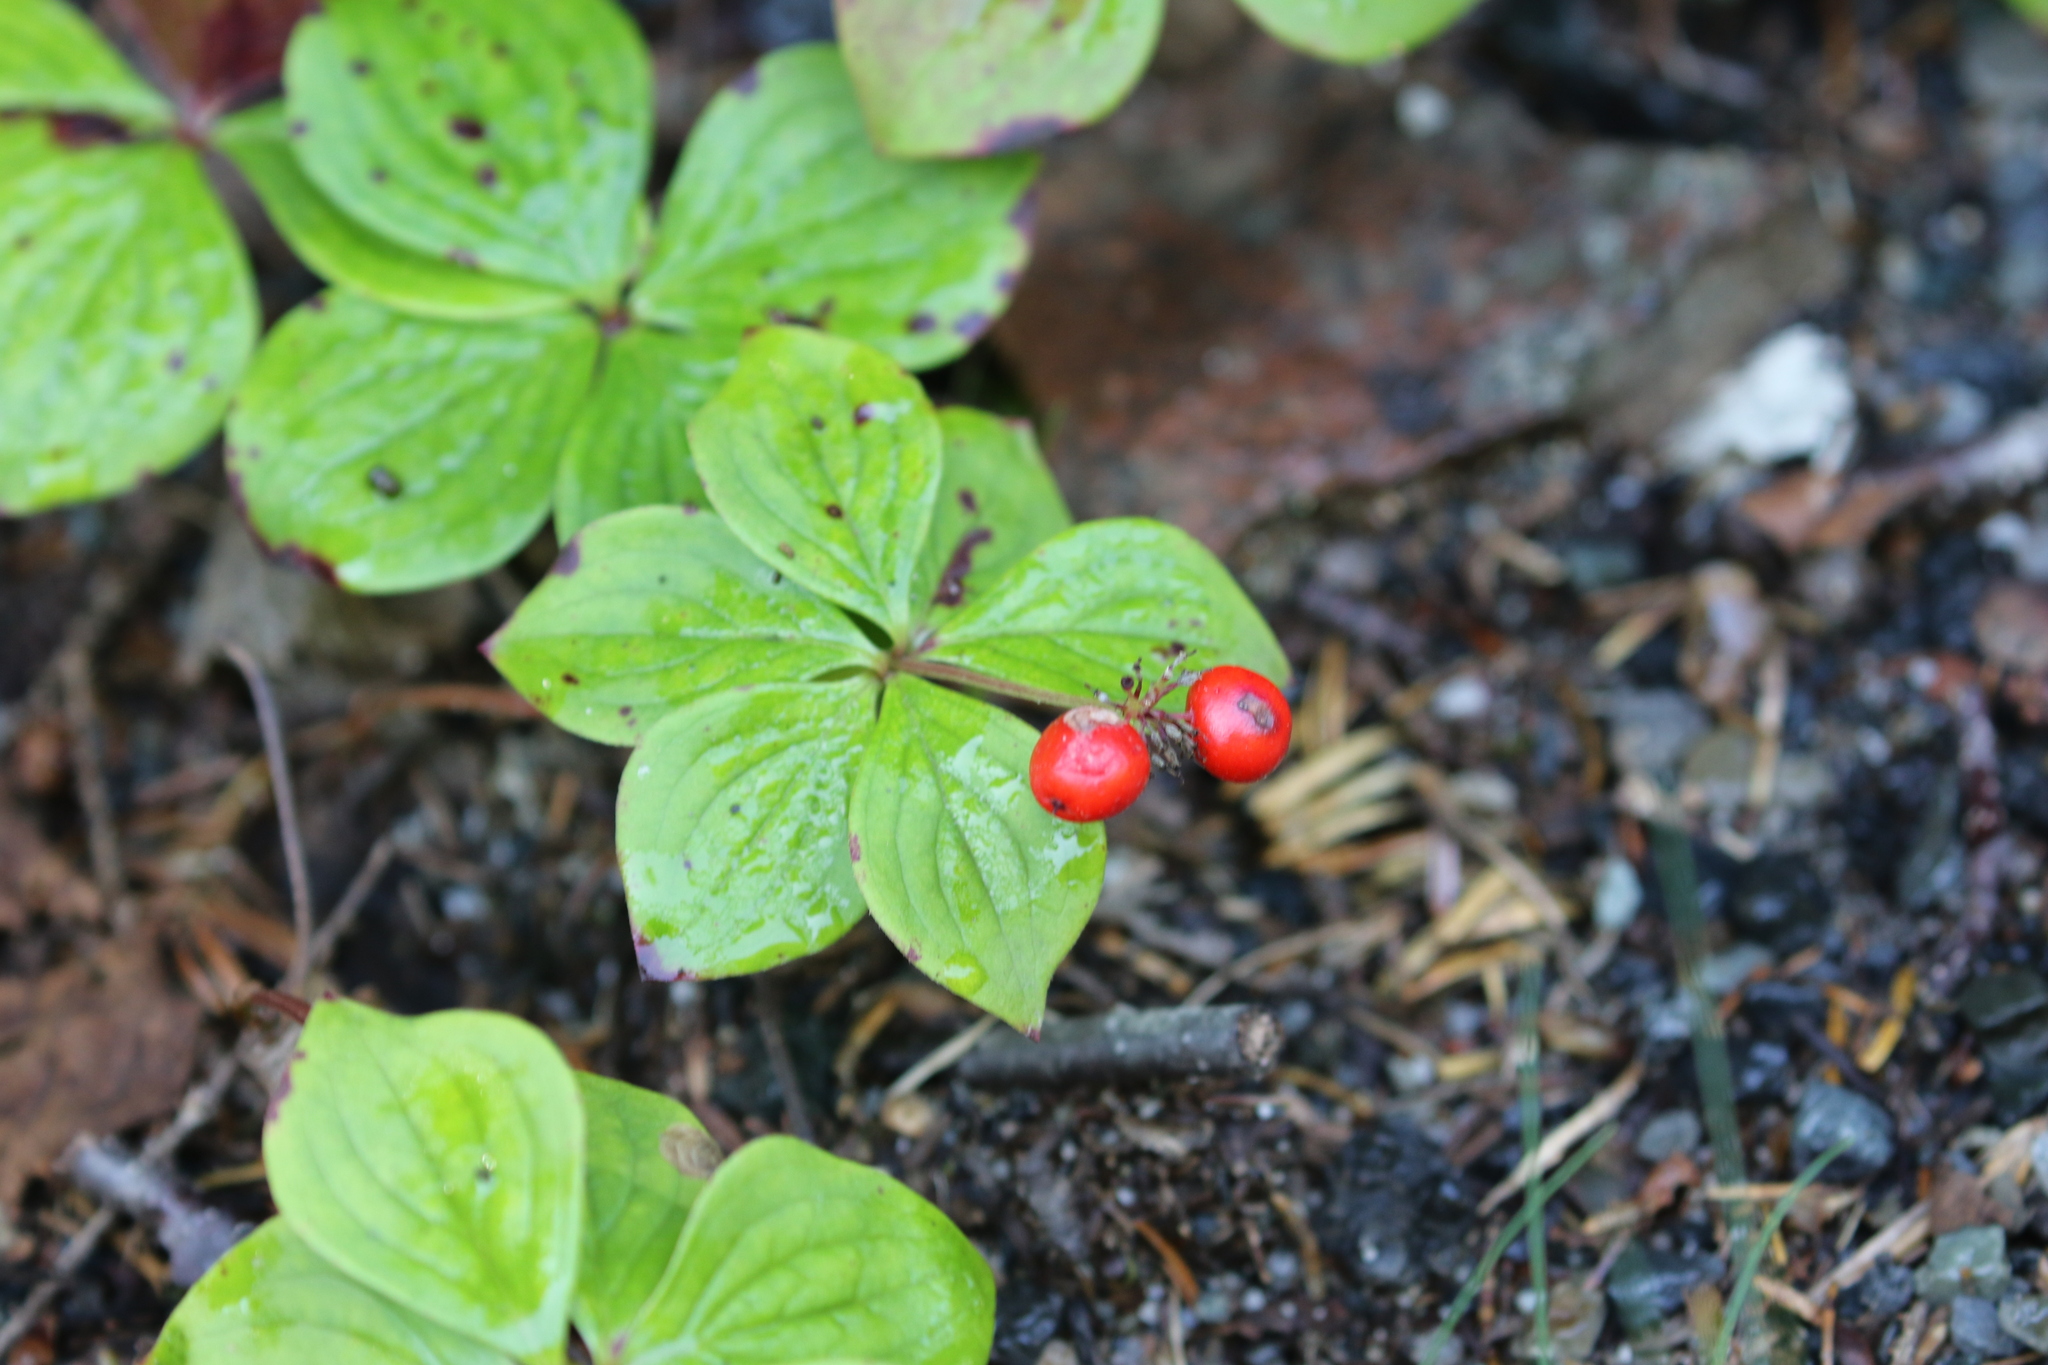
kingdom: Plantae
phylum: Tracheophyta
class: Magnoliopsida
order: Cornales
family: Cornaceae
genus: Cornus
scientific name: Cornus canadensis
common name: Creeping dogwood
